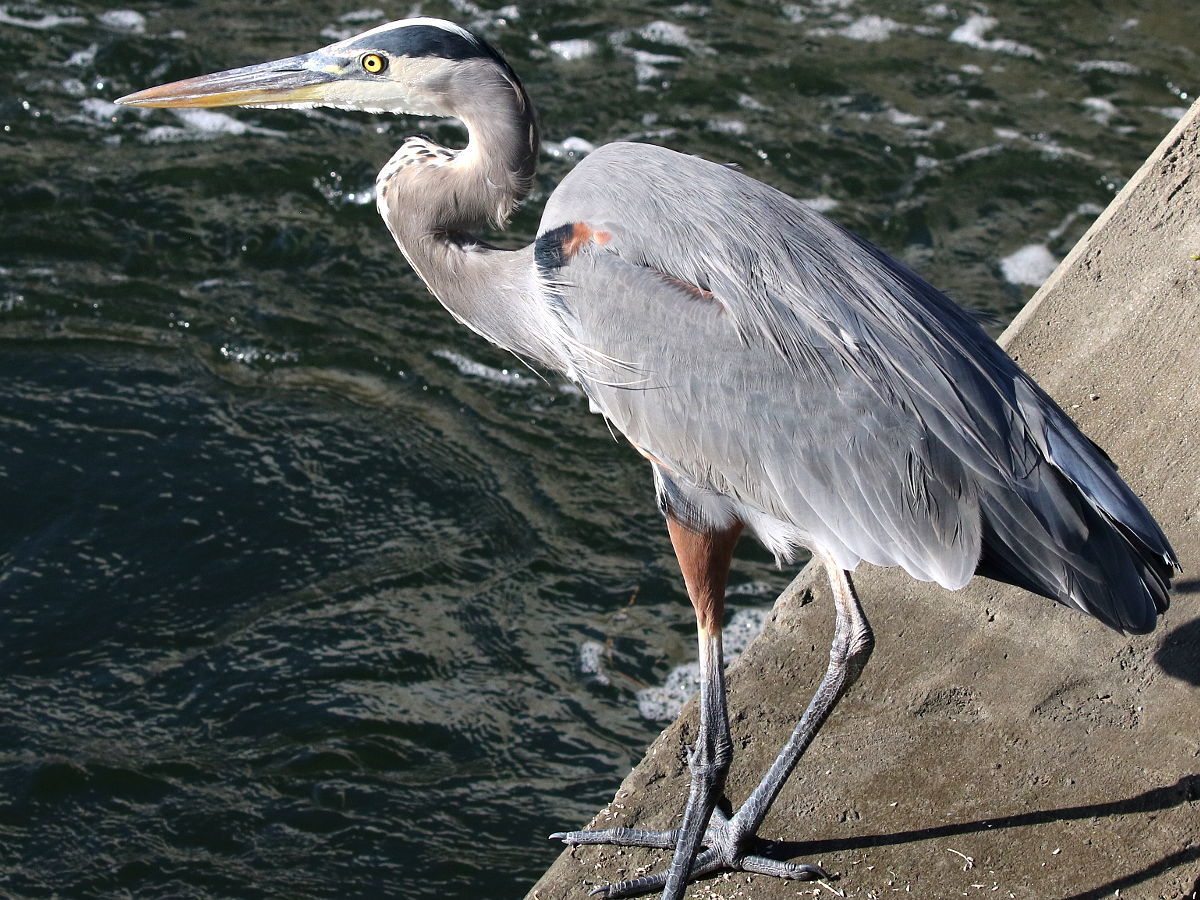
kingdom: Animalia
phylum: Chordata
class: Aves
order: Pelecaniformes
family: Ardeidae
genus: Ardea
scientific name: Ardea herodias
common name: Great blue heron
